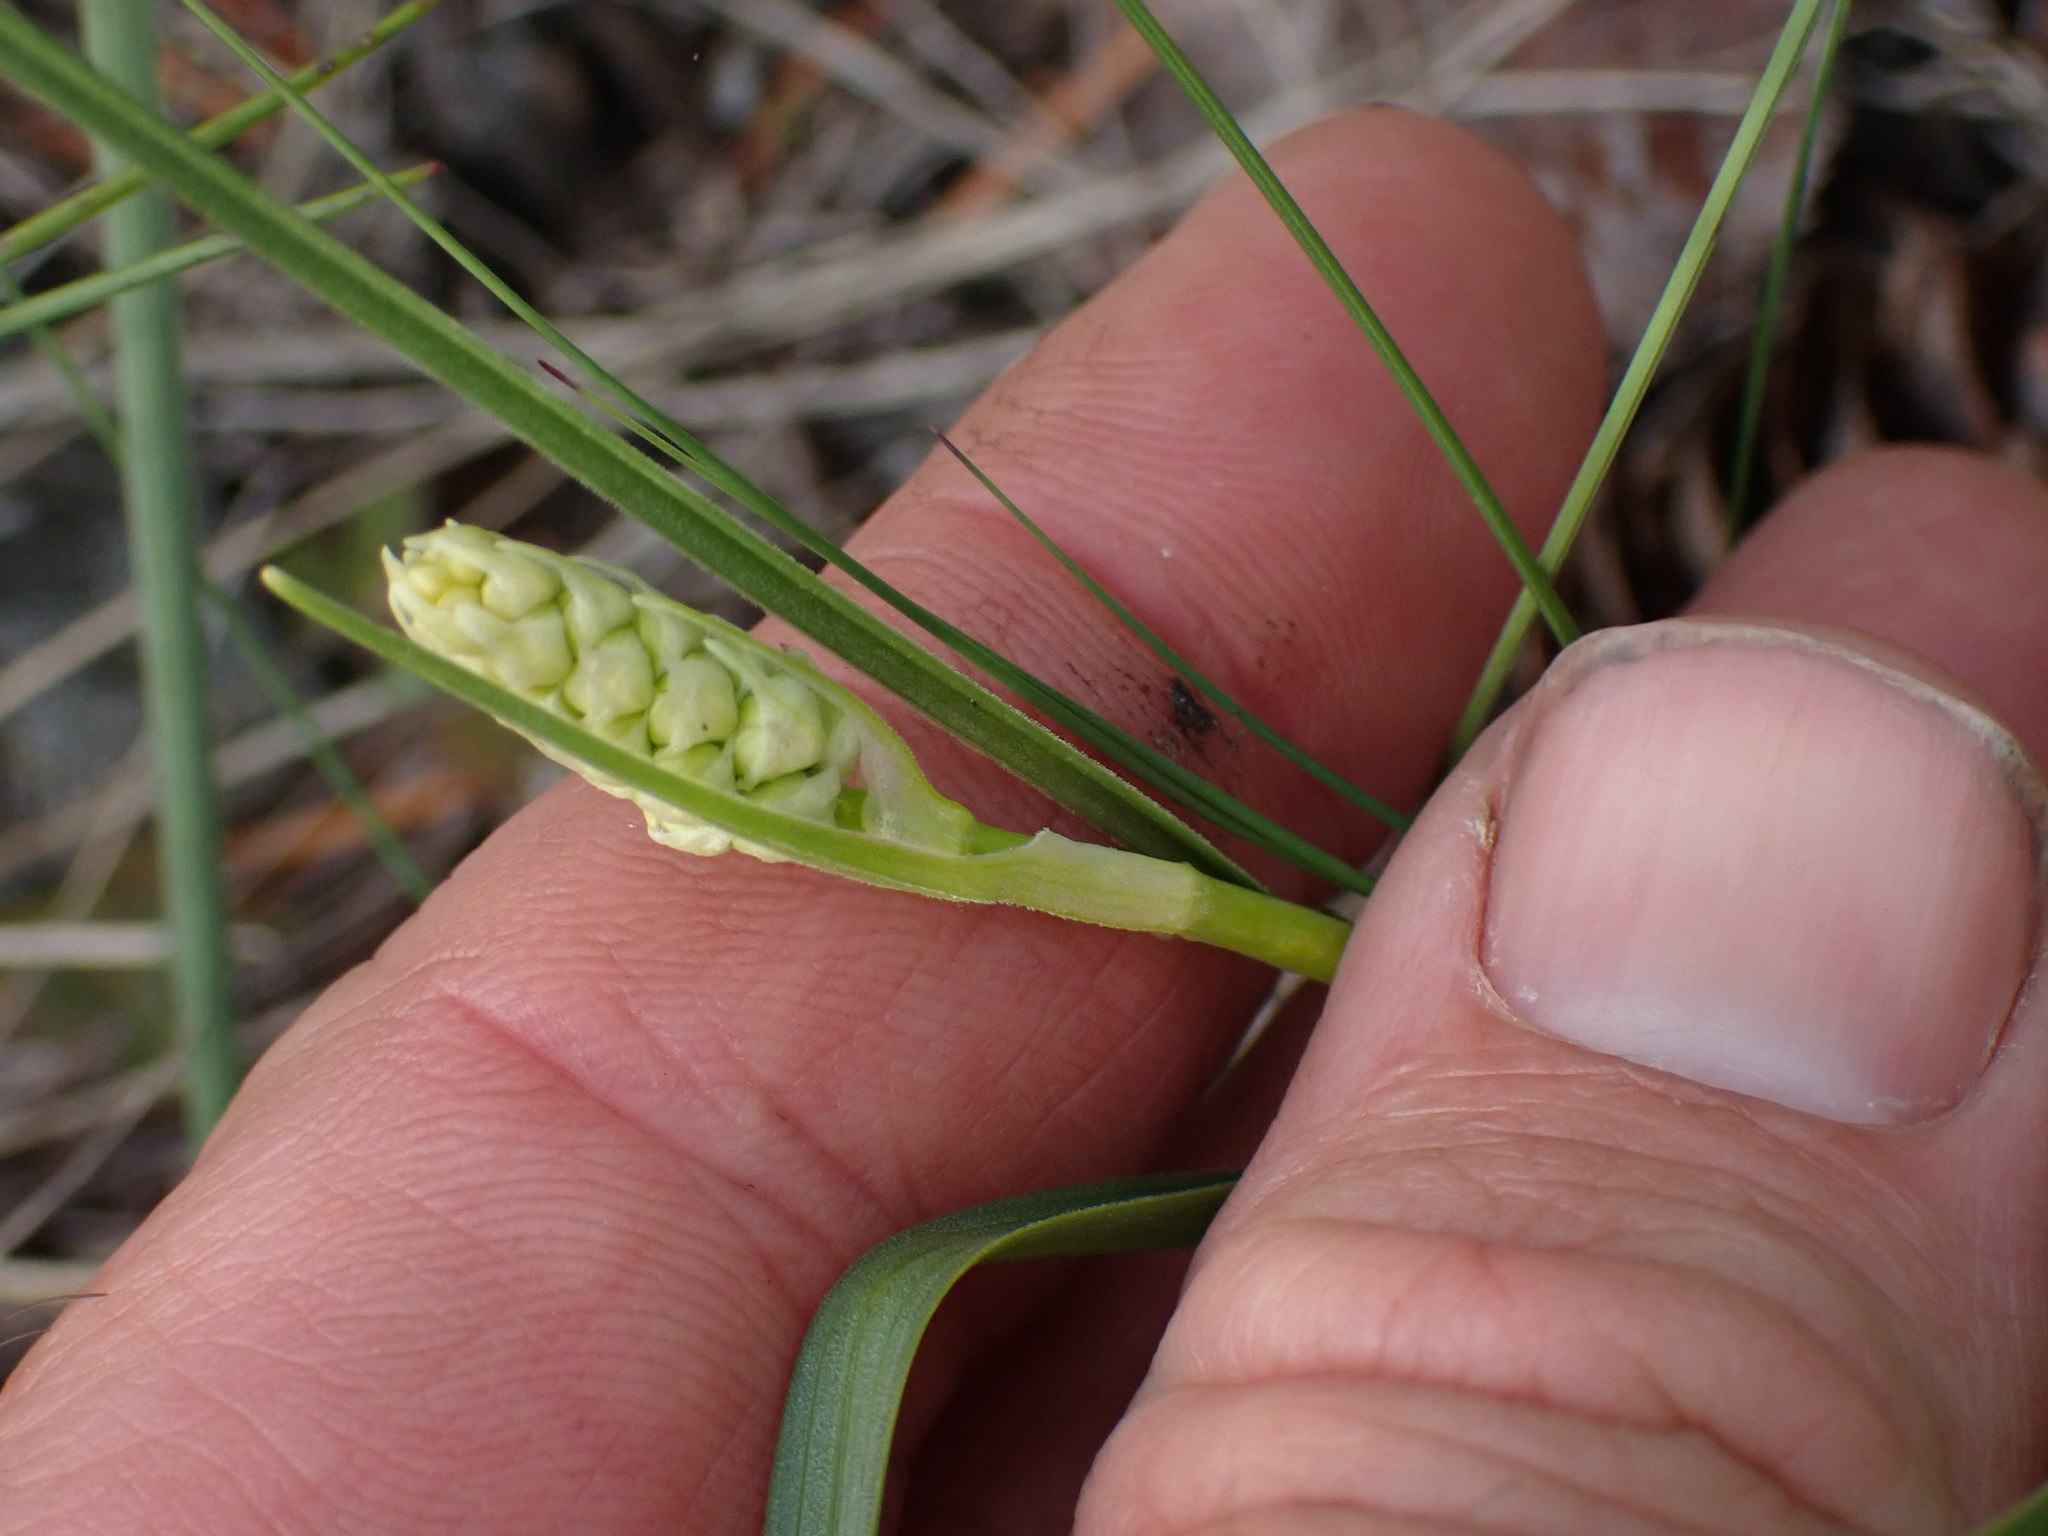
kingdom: Plantae
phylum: Tracheophyta
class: Liliopsida
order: Liliales
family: Melanthiaceae
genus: Toxicoscordion
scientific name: Toxicoscordion venenosum
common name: Meadow death camas
